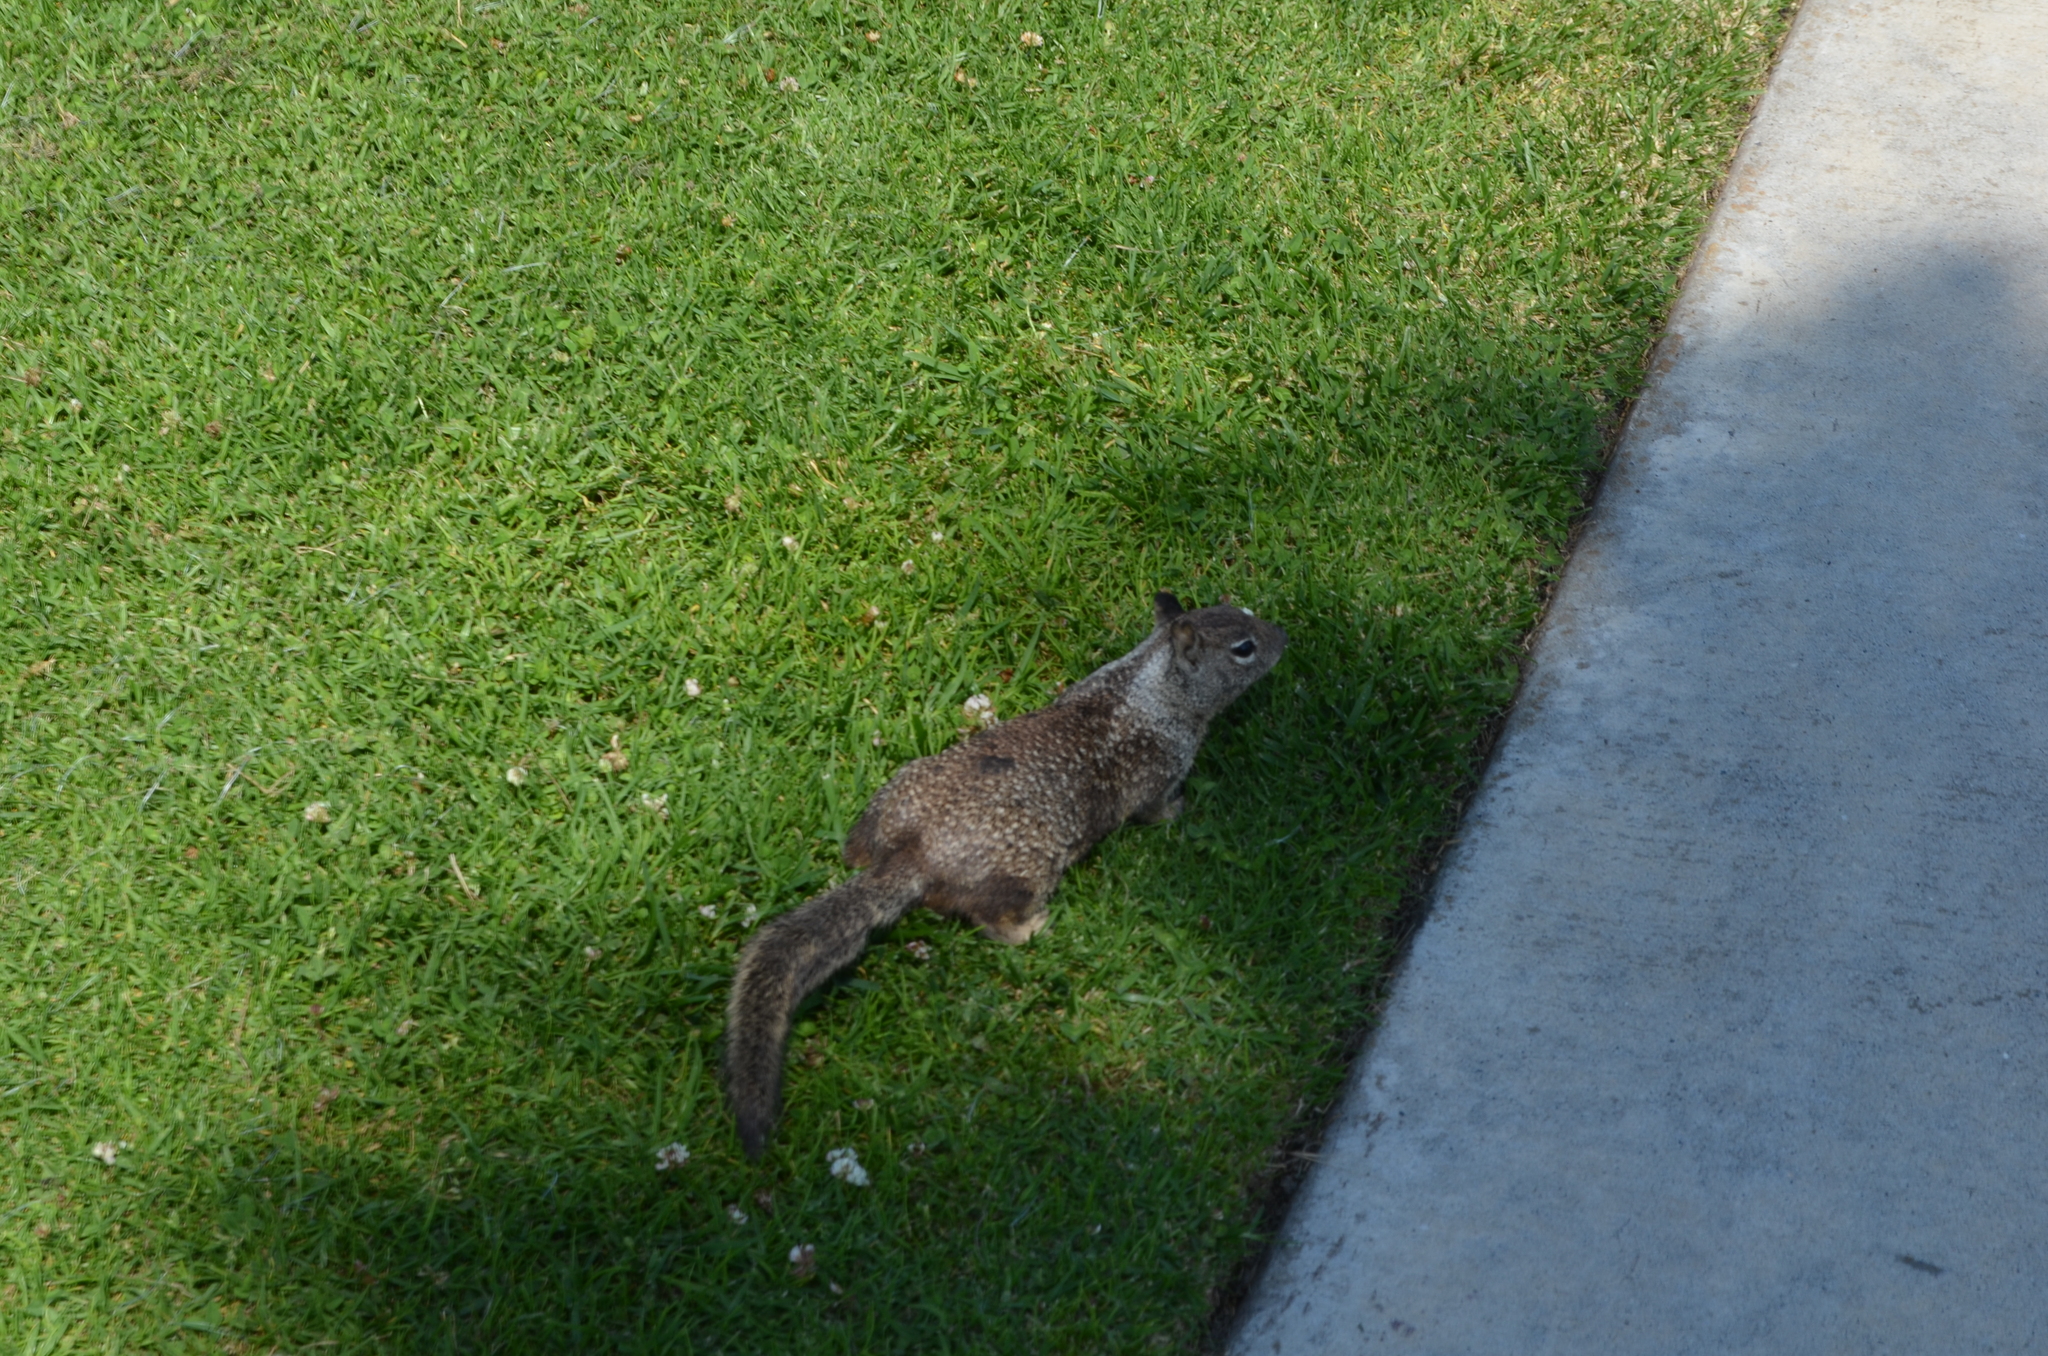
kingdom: Animalia
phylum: Chordata
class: Mammalia
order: Rodentia
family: Sciuridae
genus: Otospermophilus
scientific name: Otospermophilus beecheyi
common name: California ground squirrel
